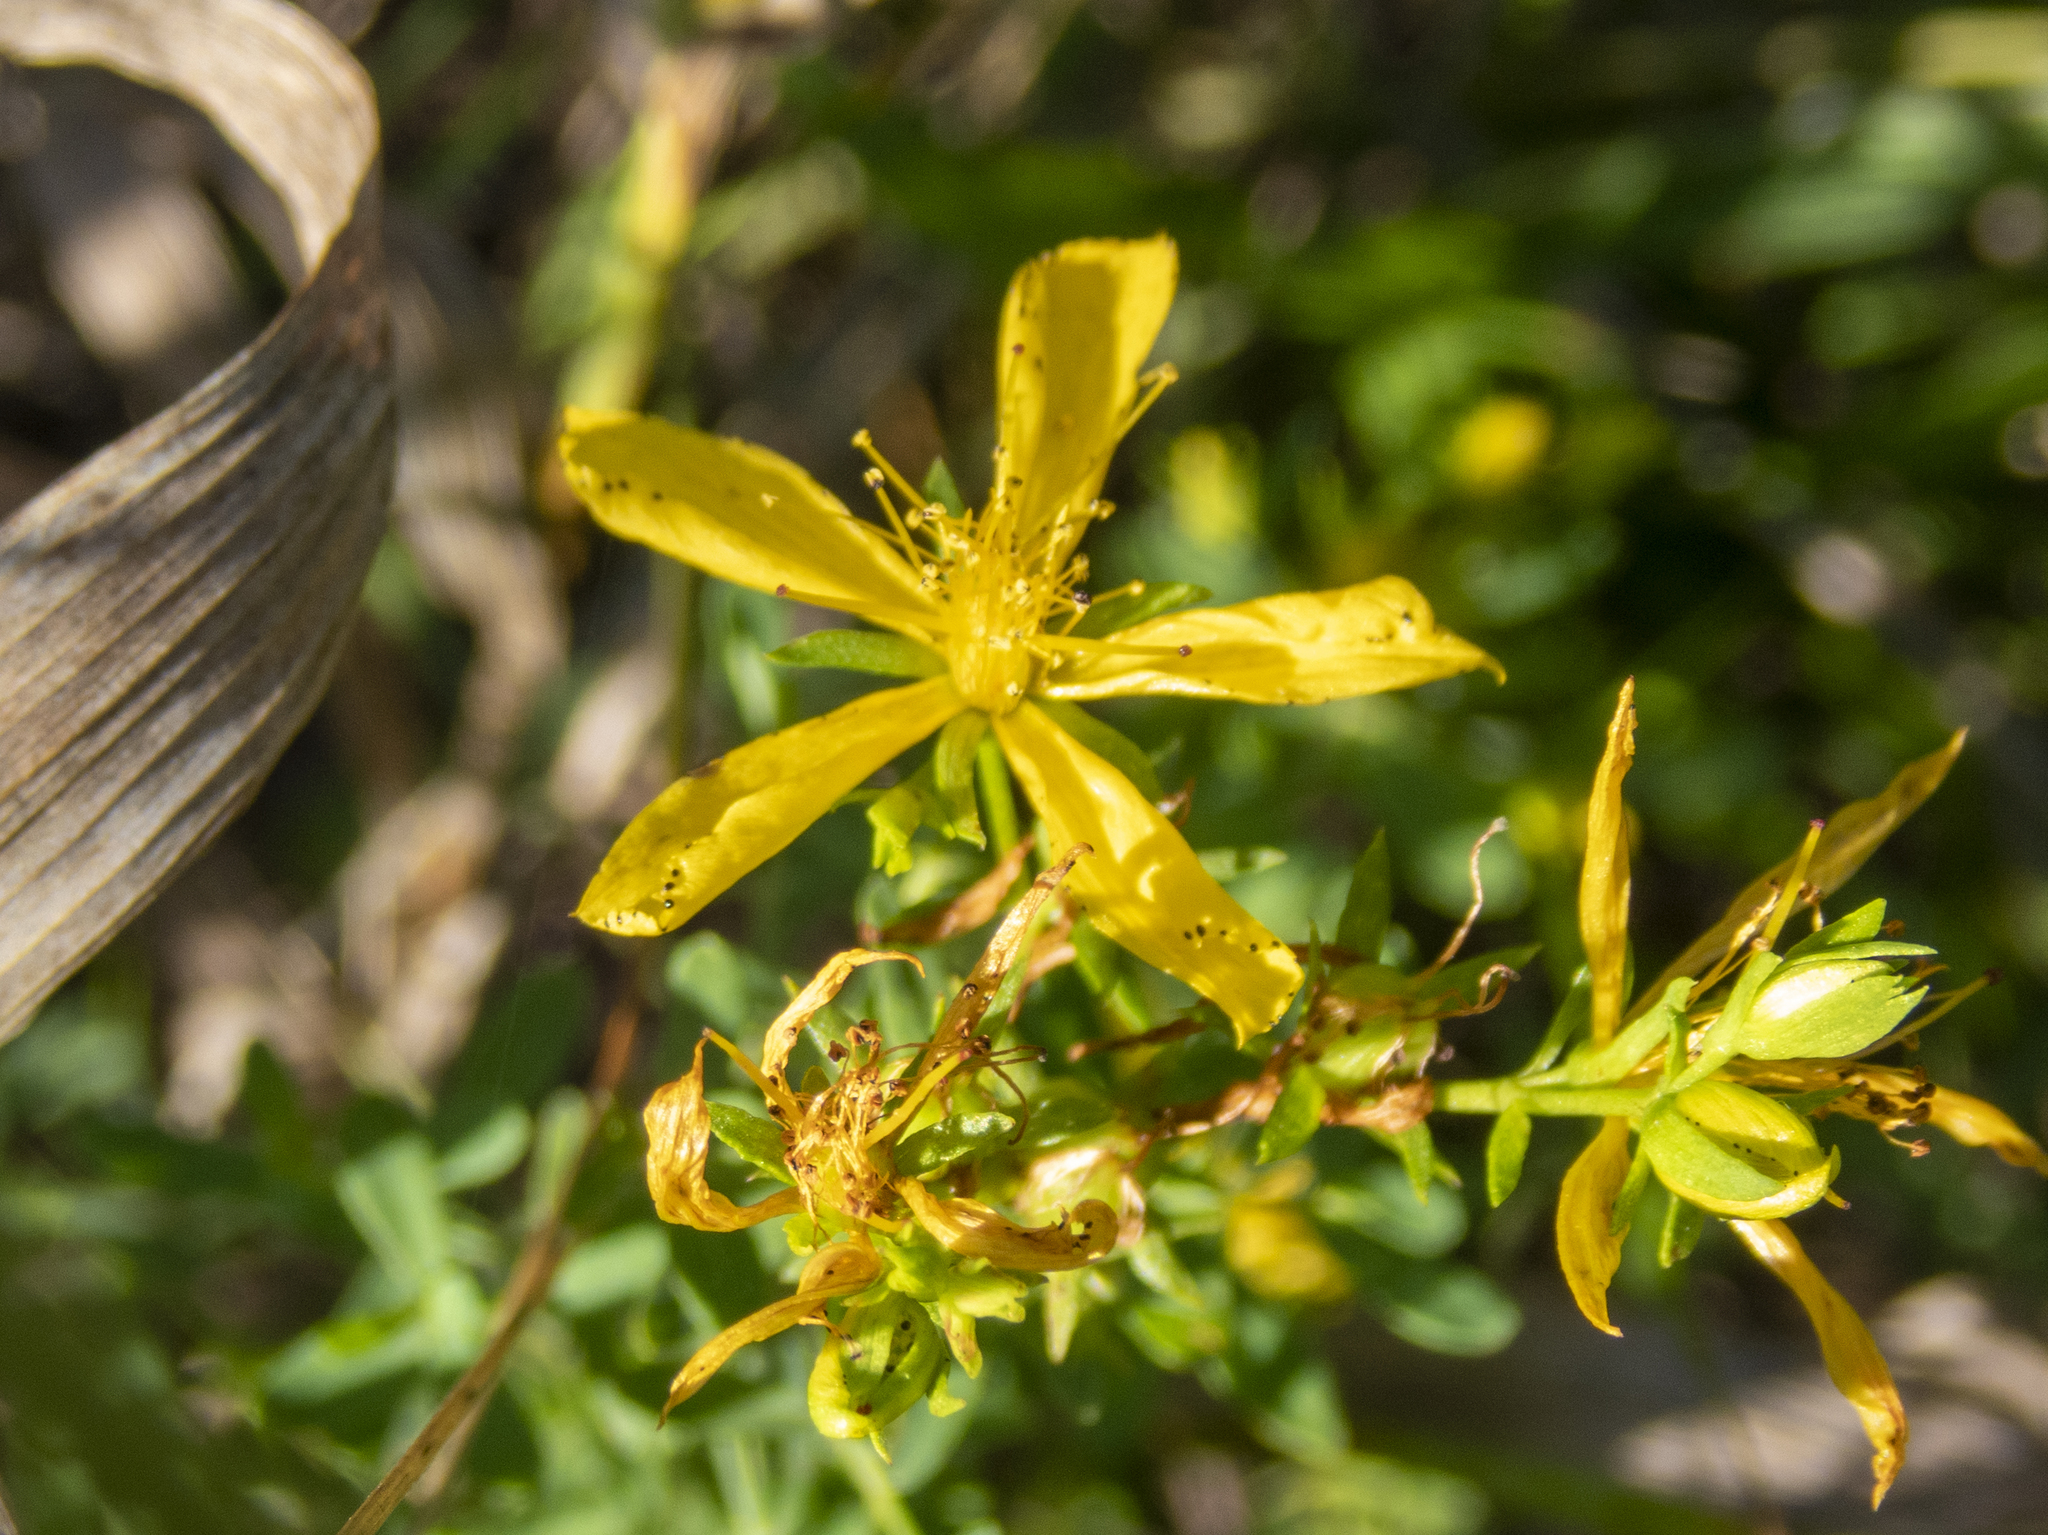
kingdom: Plantae
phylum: Tracheophyta
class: Magnoliopsida
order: Malpighiales
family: Hypericaceae
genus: Hypericum
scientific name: Hypericum perforatum
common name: Common st. johnswort
